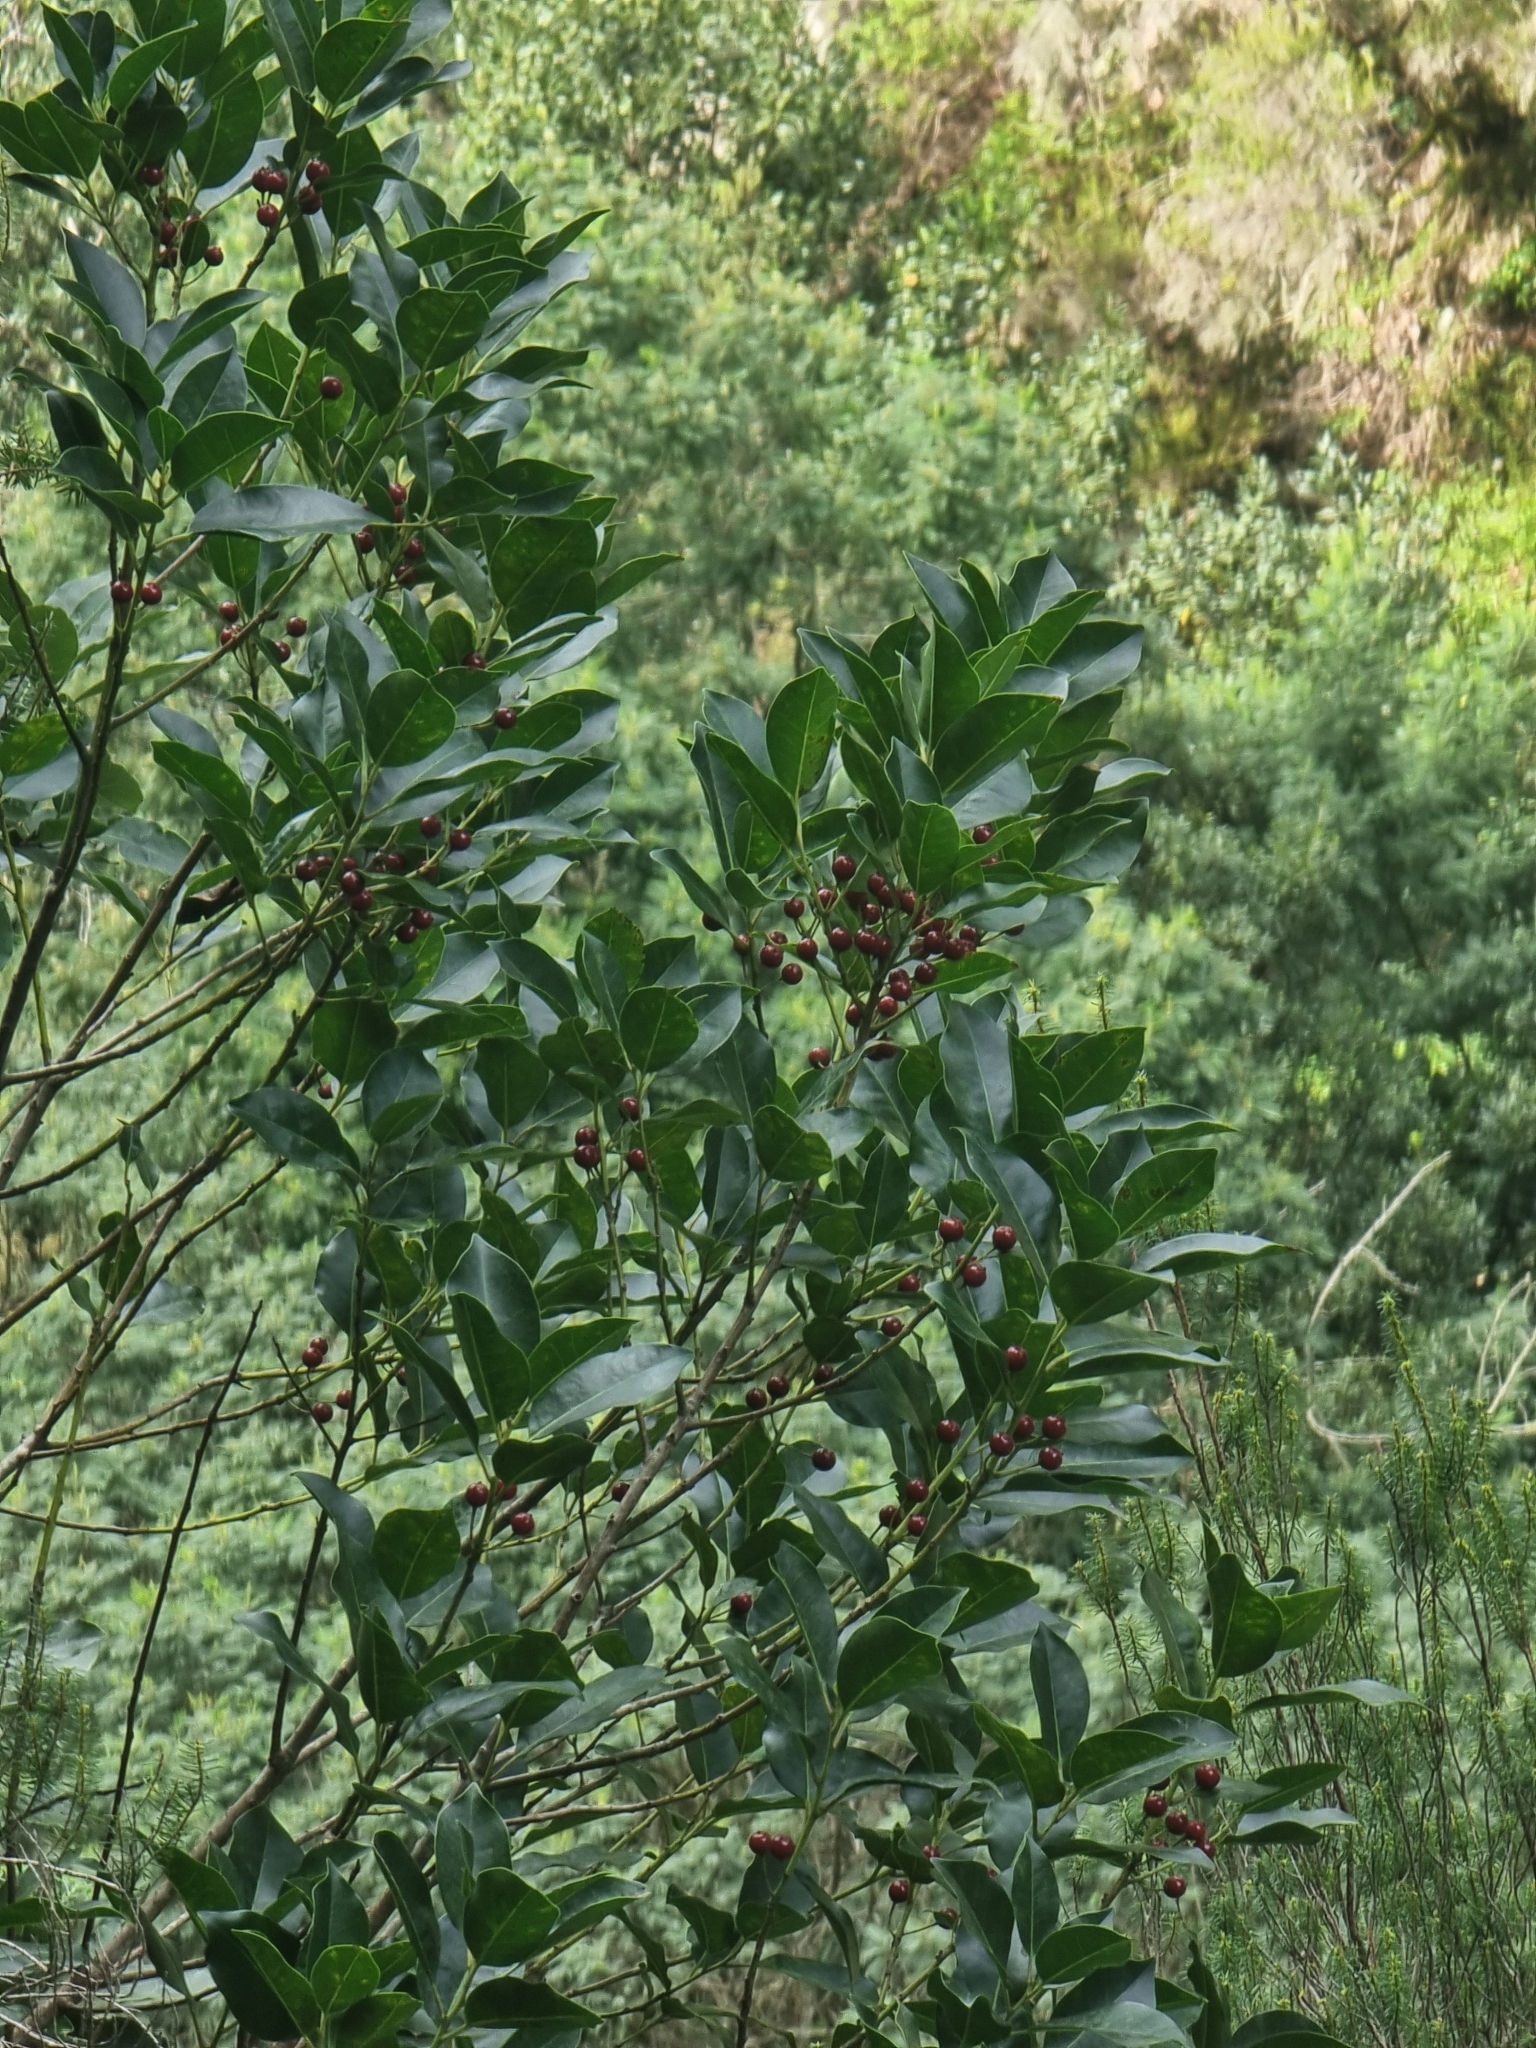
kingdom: Plantae
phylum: Tracheophyta
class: Magnoliopsida
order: Aquifoliales
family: Aquifoliaceae
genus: Ilex
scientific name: Ilex canariensis
